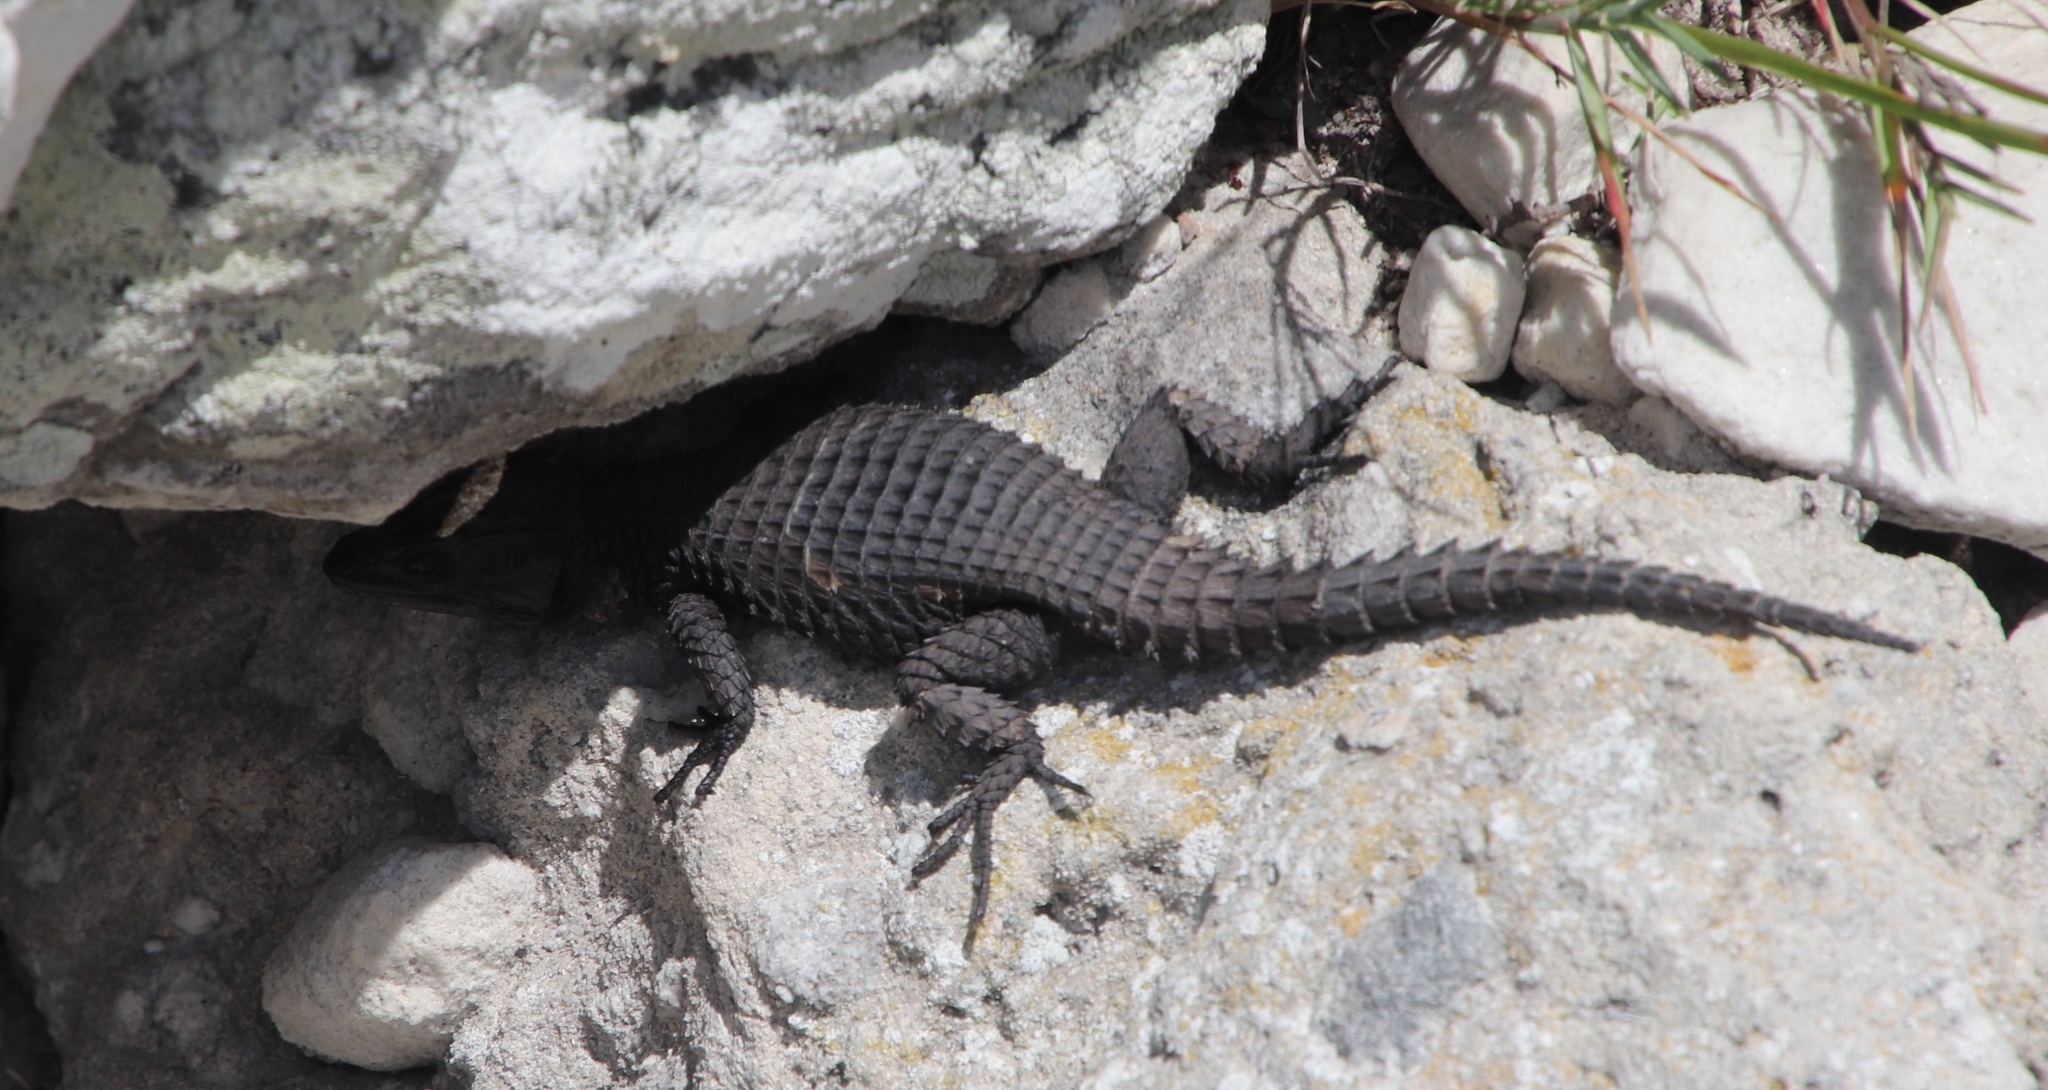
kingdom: Animalia
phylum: Chordata
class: Squamata
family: Cordylidae
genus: Cordylus
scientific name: Cordylus niger
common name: Black girdled lizard
